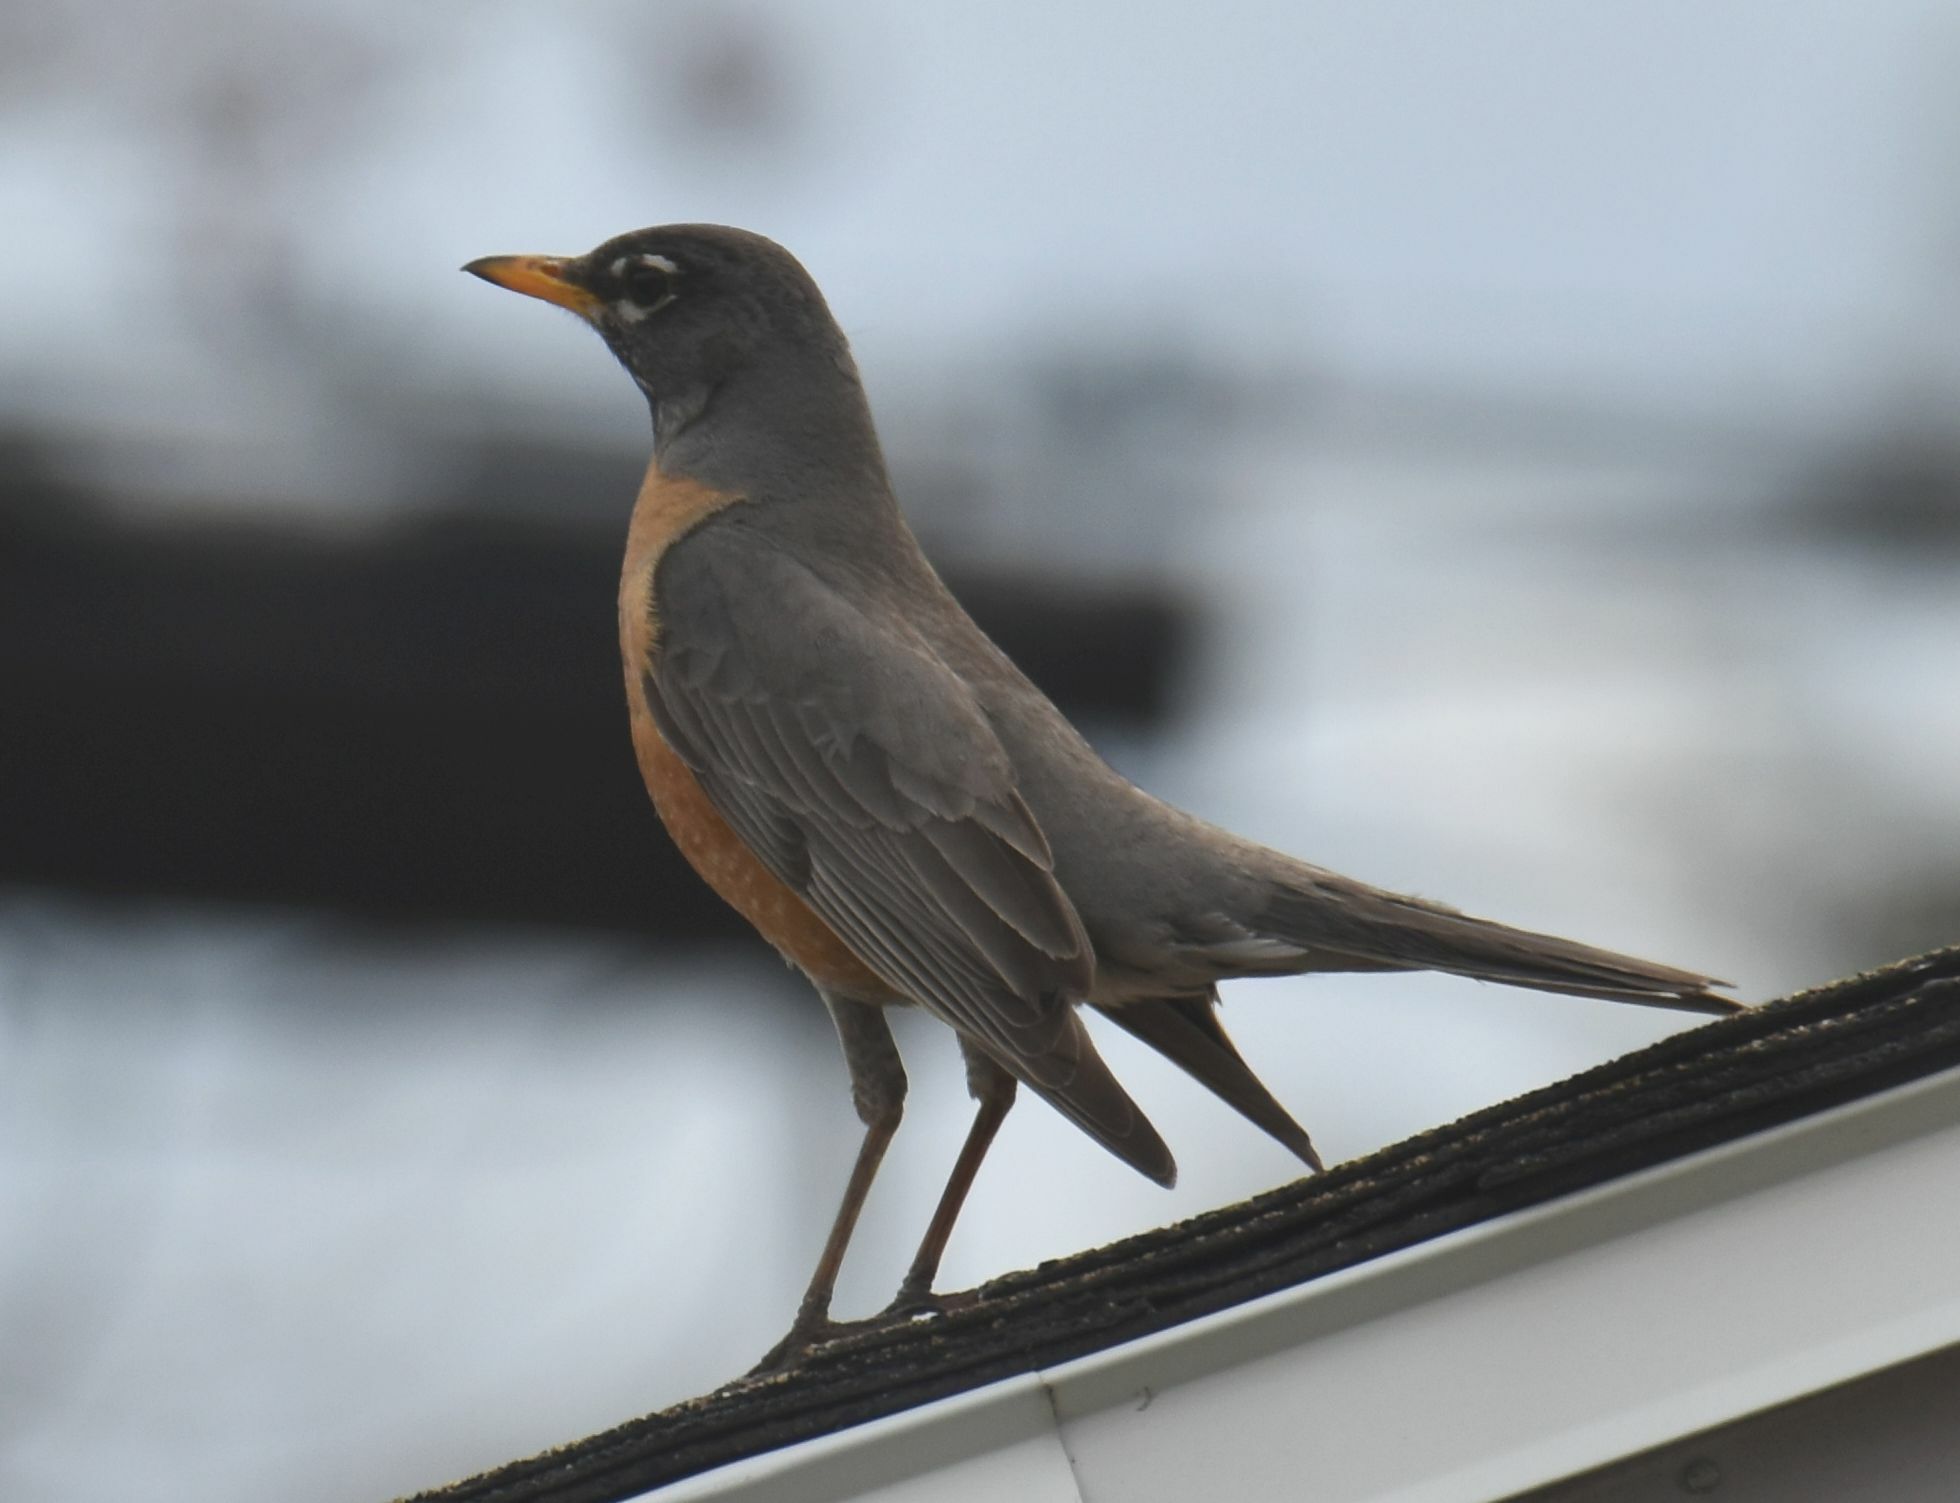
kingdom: Animalia
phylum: Chordata
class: Aves
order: Passeriformes
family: Turdidae
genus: Turdus
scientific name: Turdus migratorius
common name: American robin
